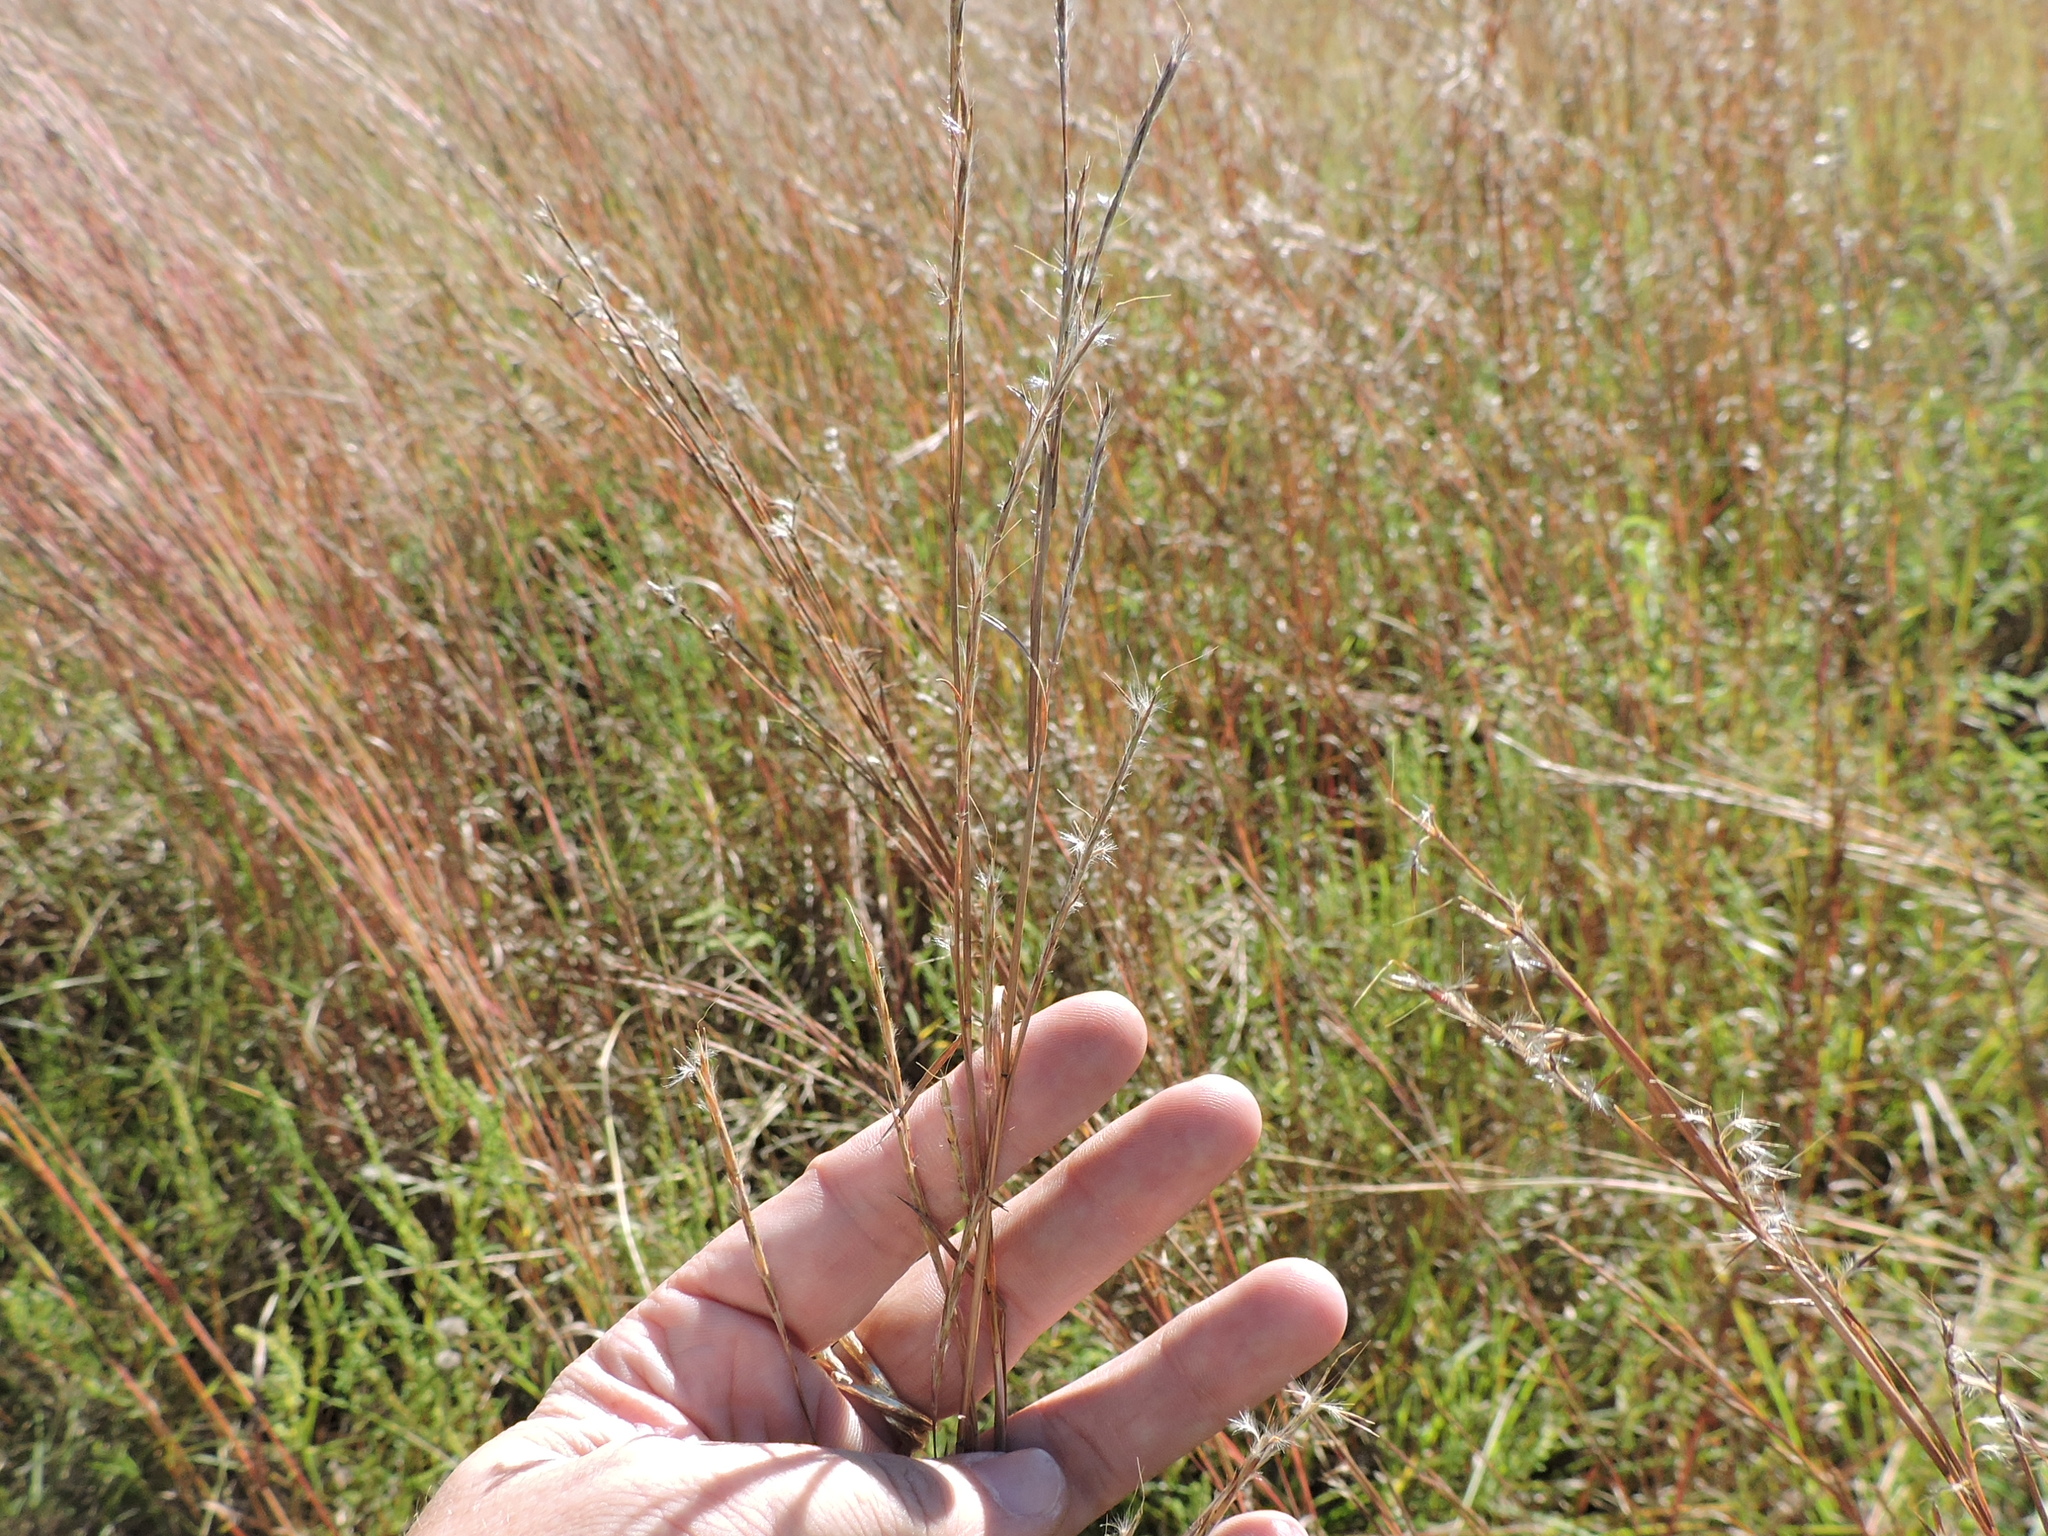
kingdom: Plantae
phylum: Tracheophyta
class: Liliopsida
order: Poales
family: Poaceae
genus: Schizachyrium
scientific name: Schizachyrium scoparium
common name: Little bluestem
